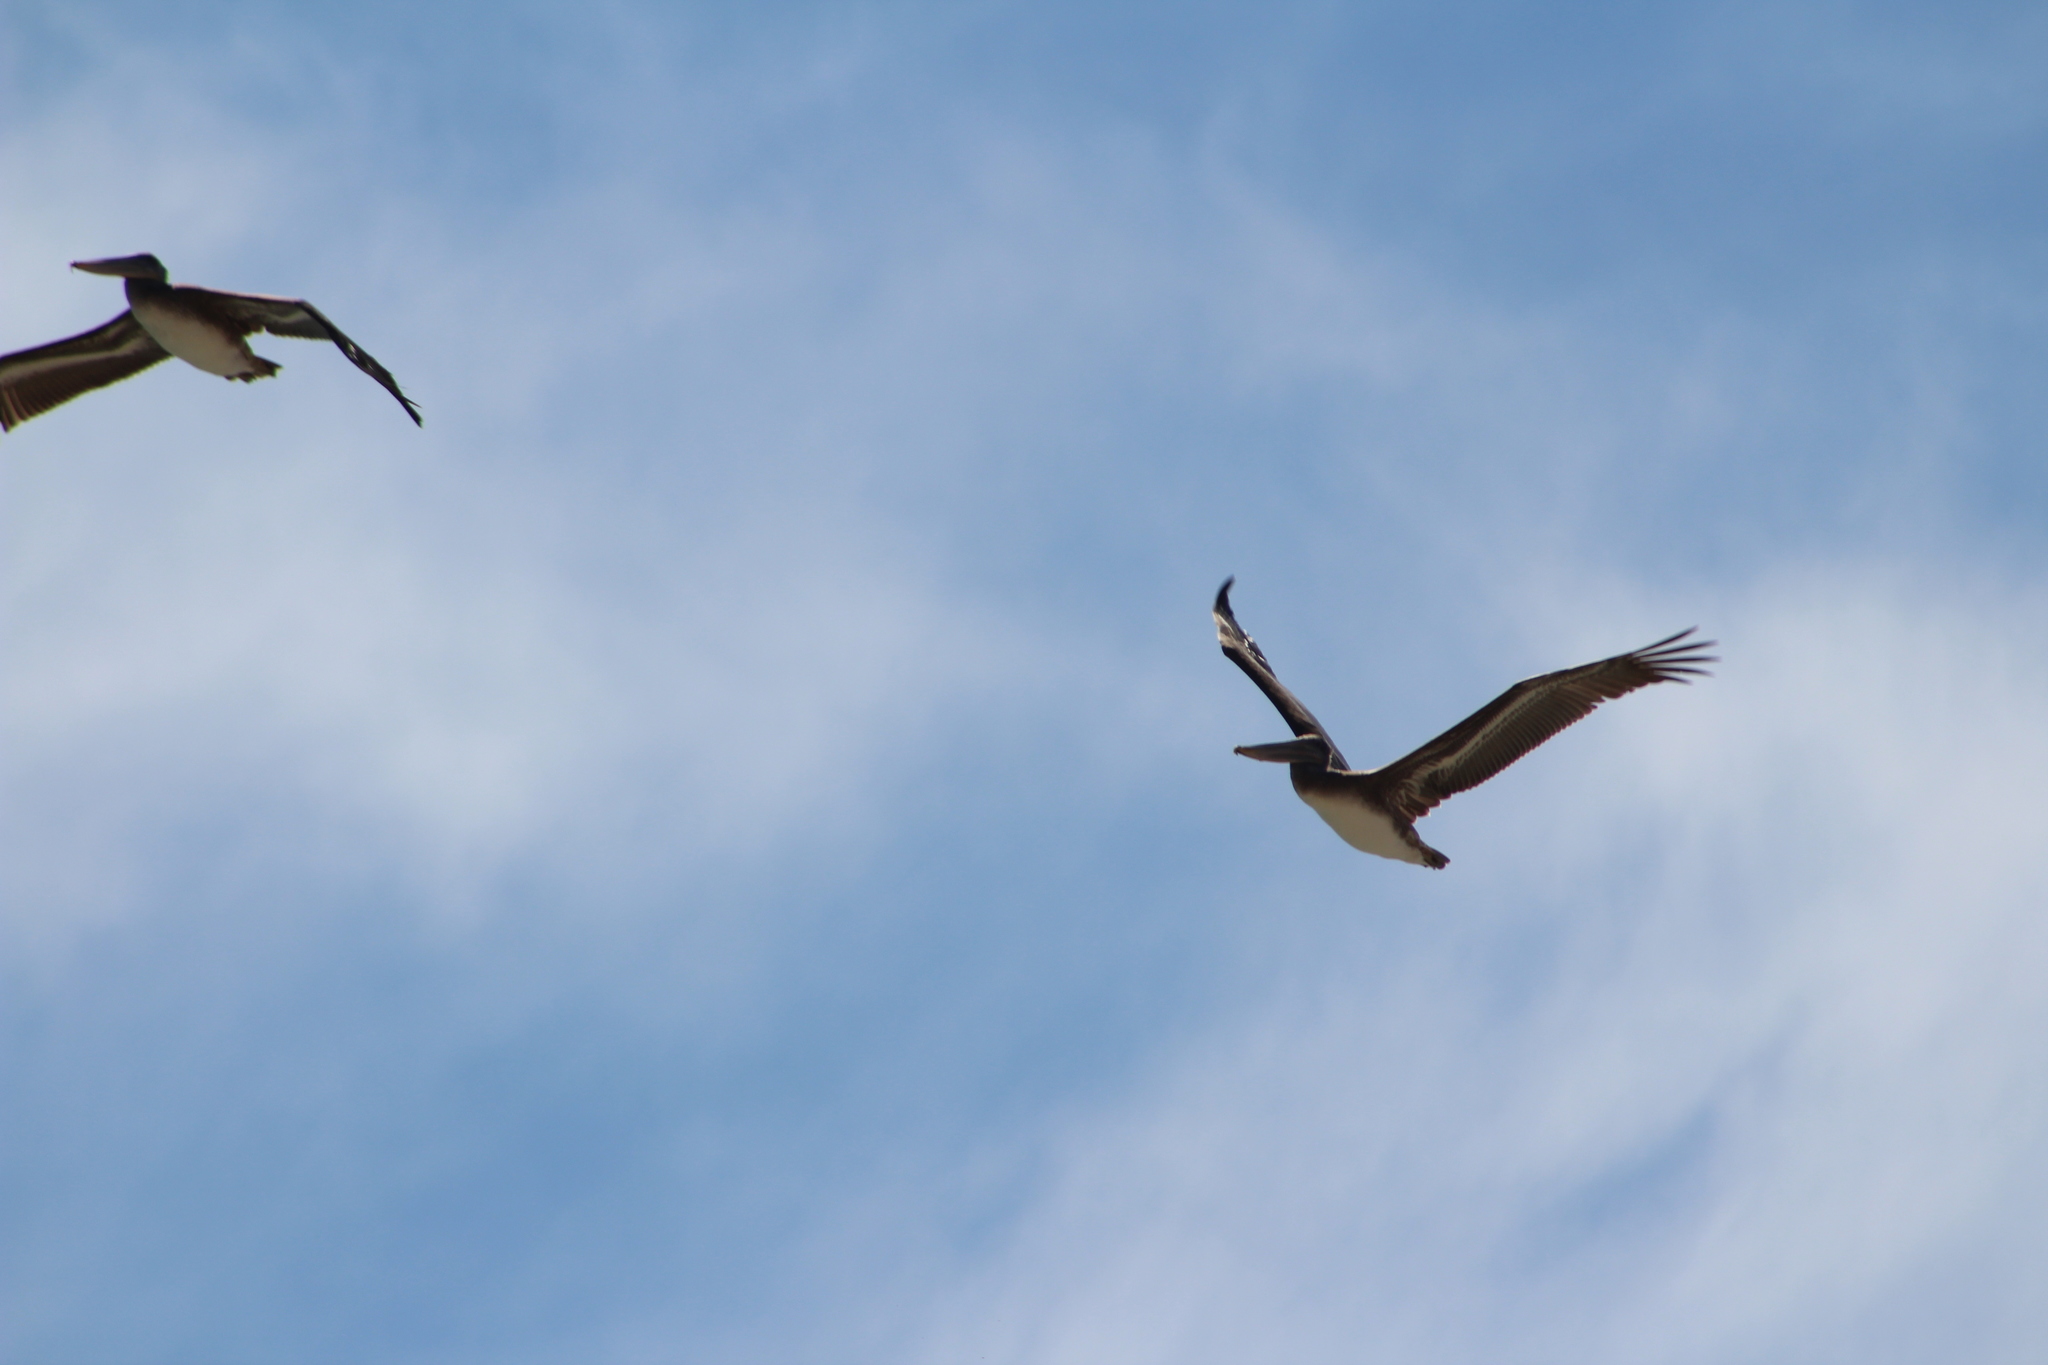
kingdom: Animalia
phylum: Chordata
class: Aves
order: Pelecaniformes
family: Pelecanidae
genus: Pelecanus
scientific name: Pelecanus occidentalis
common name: Brown pelican
